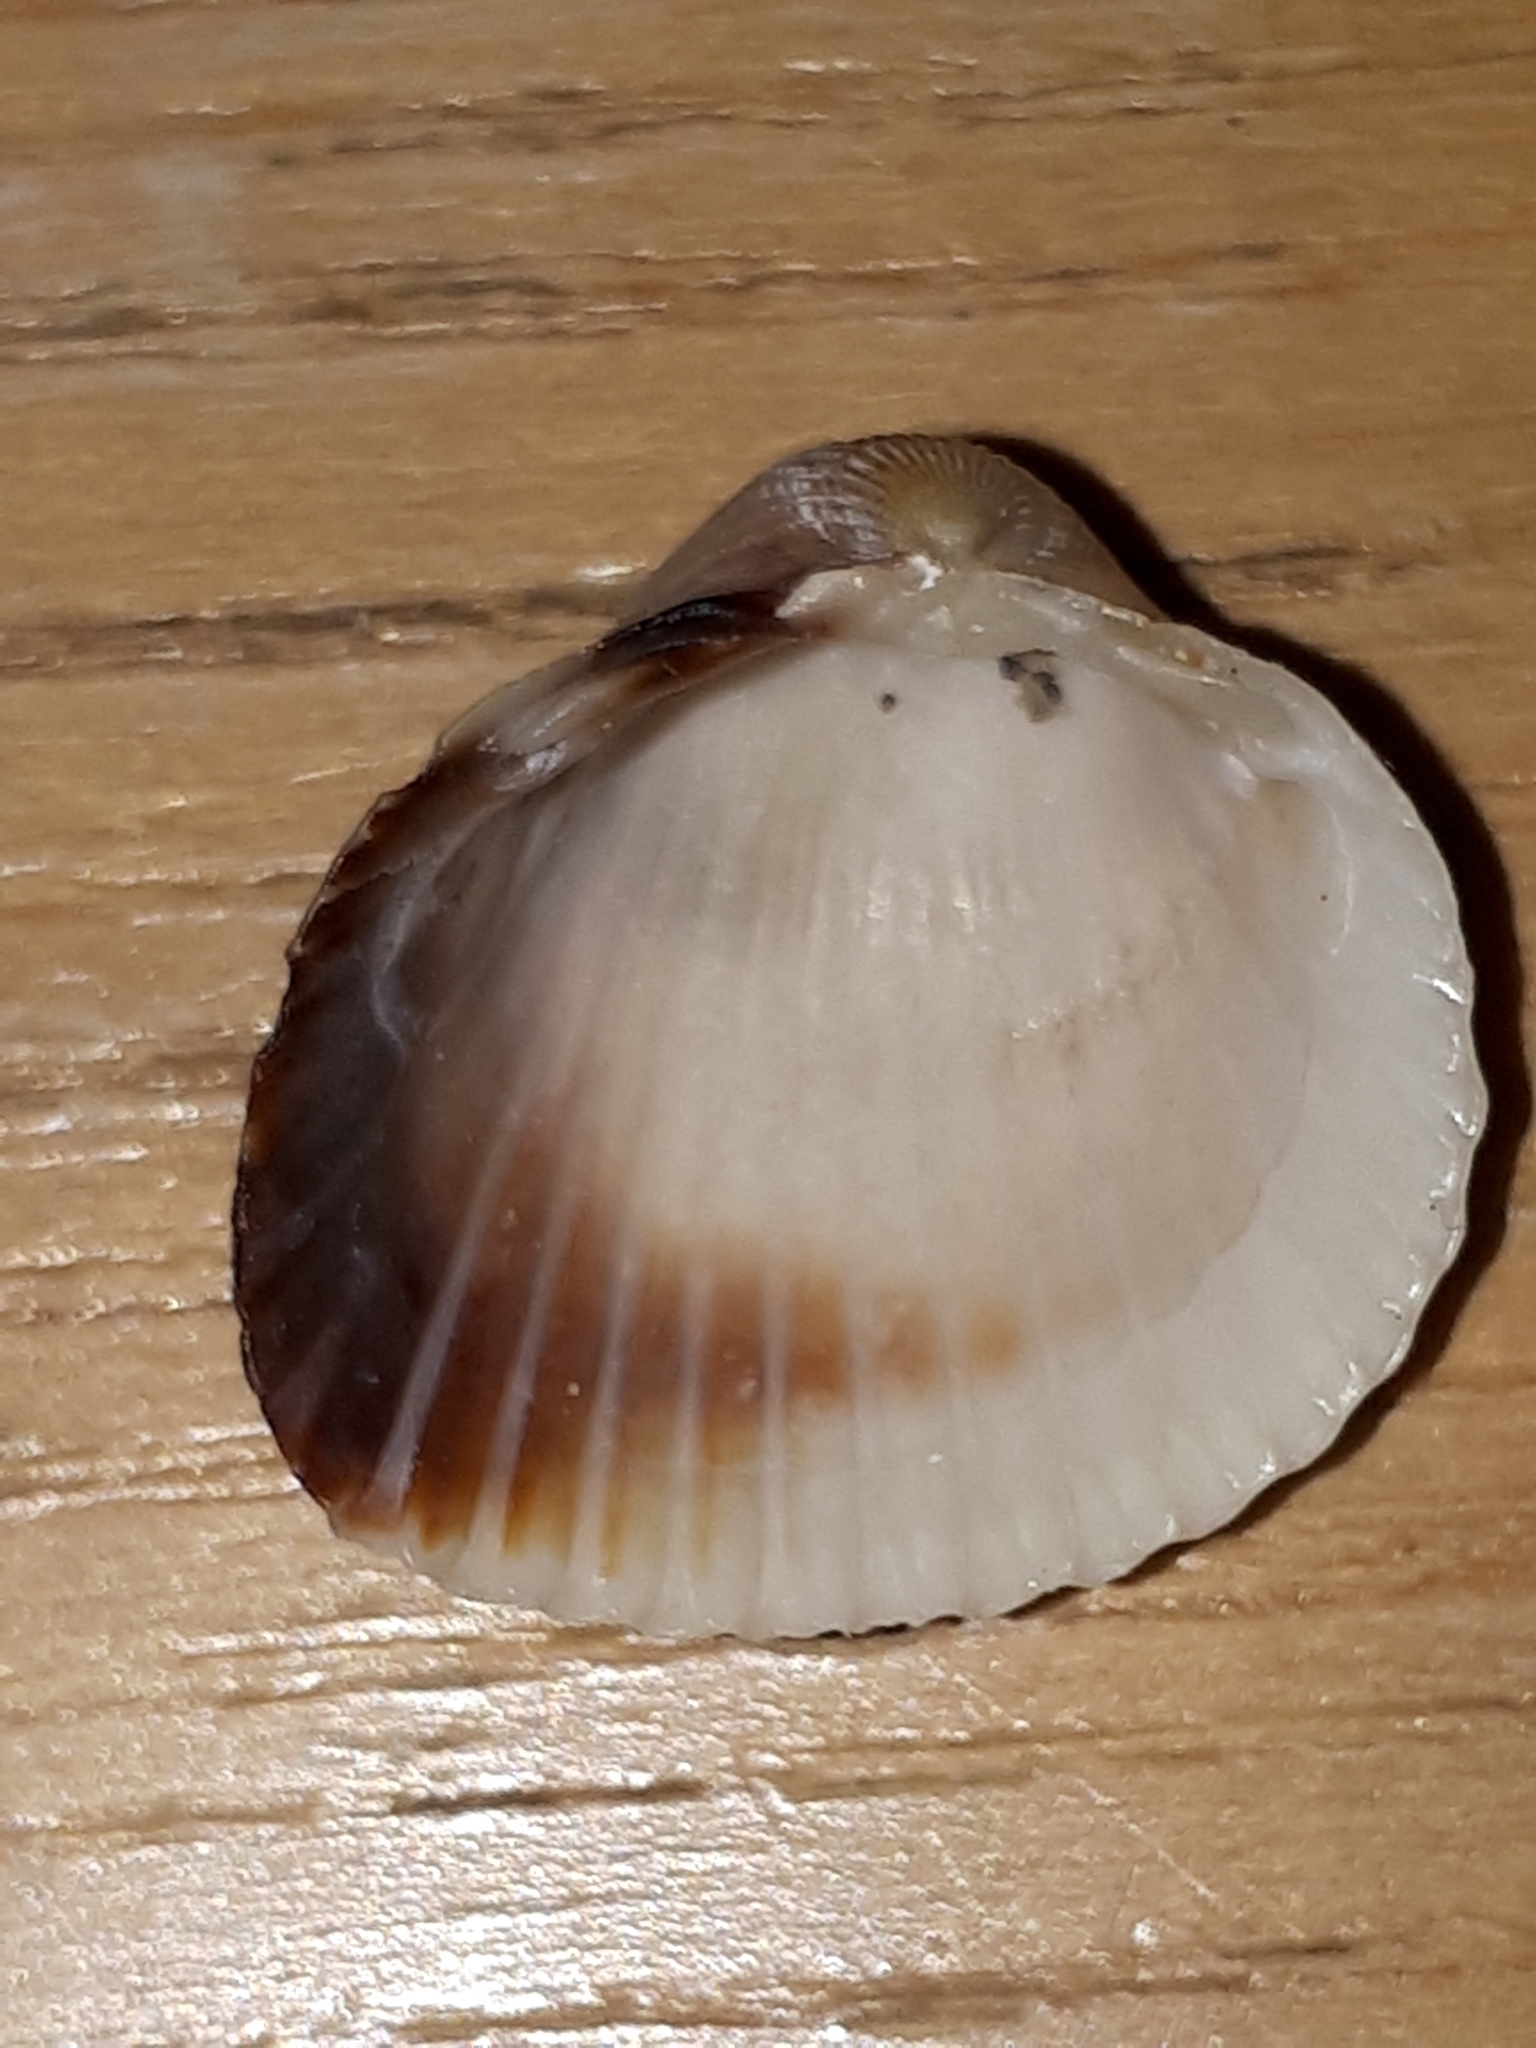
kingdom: Animalia
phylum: Mollusca
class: Bivalvia
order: Cardiida
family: Cardiidae
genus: Cerastoderma
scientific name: Cerastoderma glaucum
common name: Lagoon cockle
